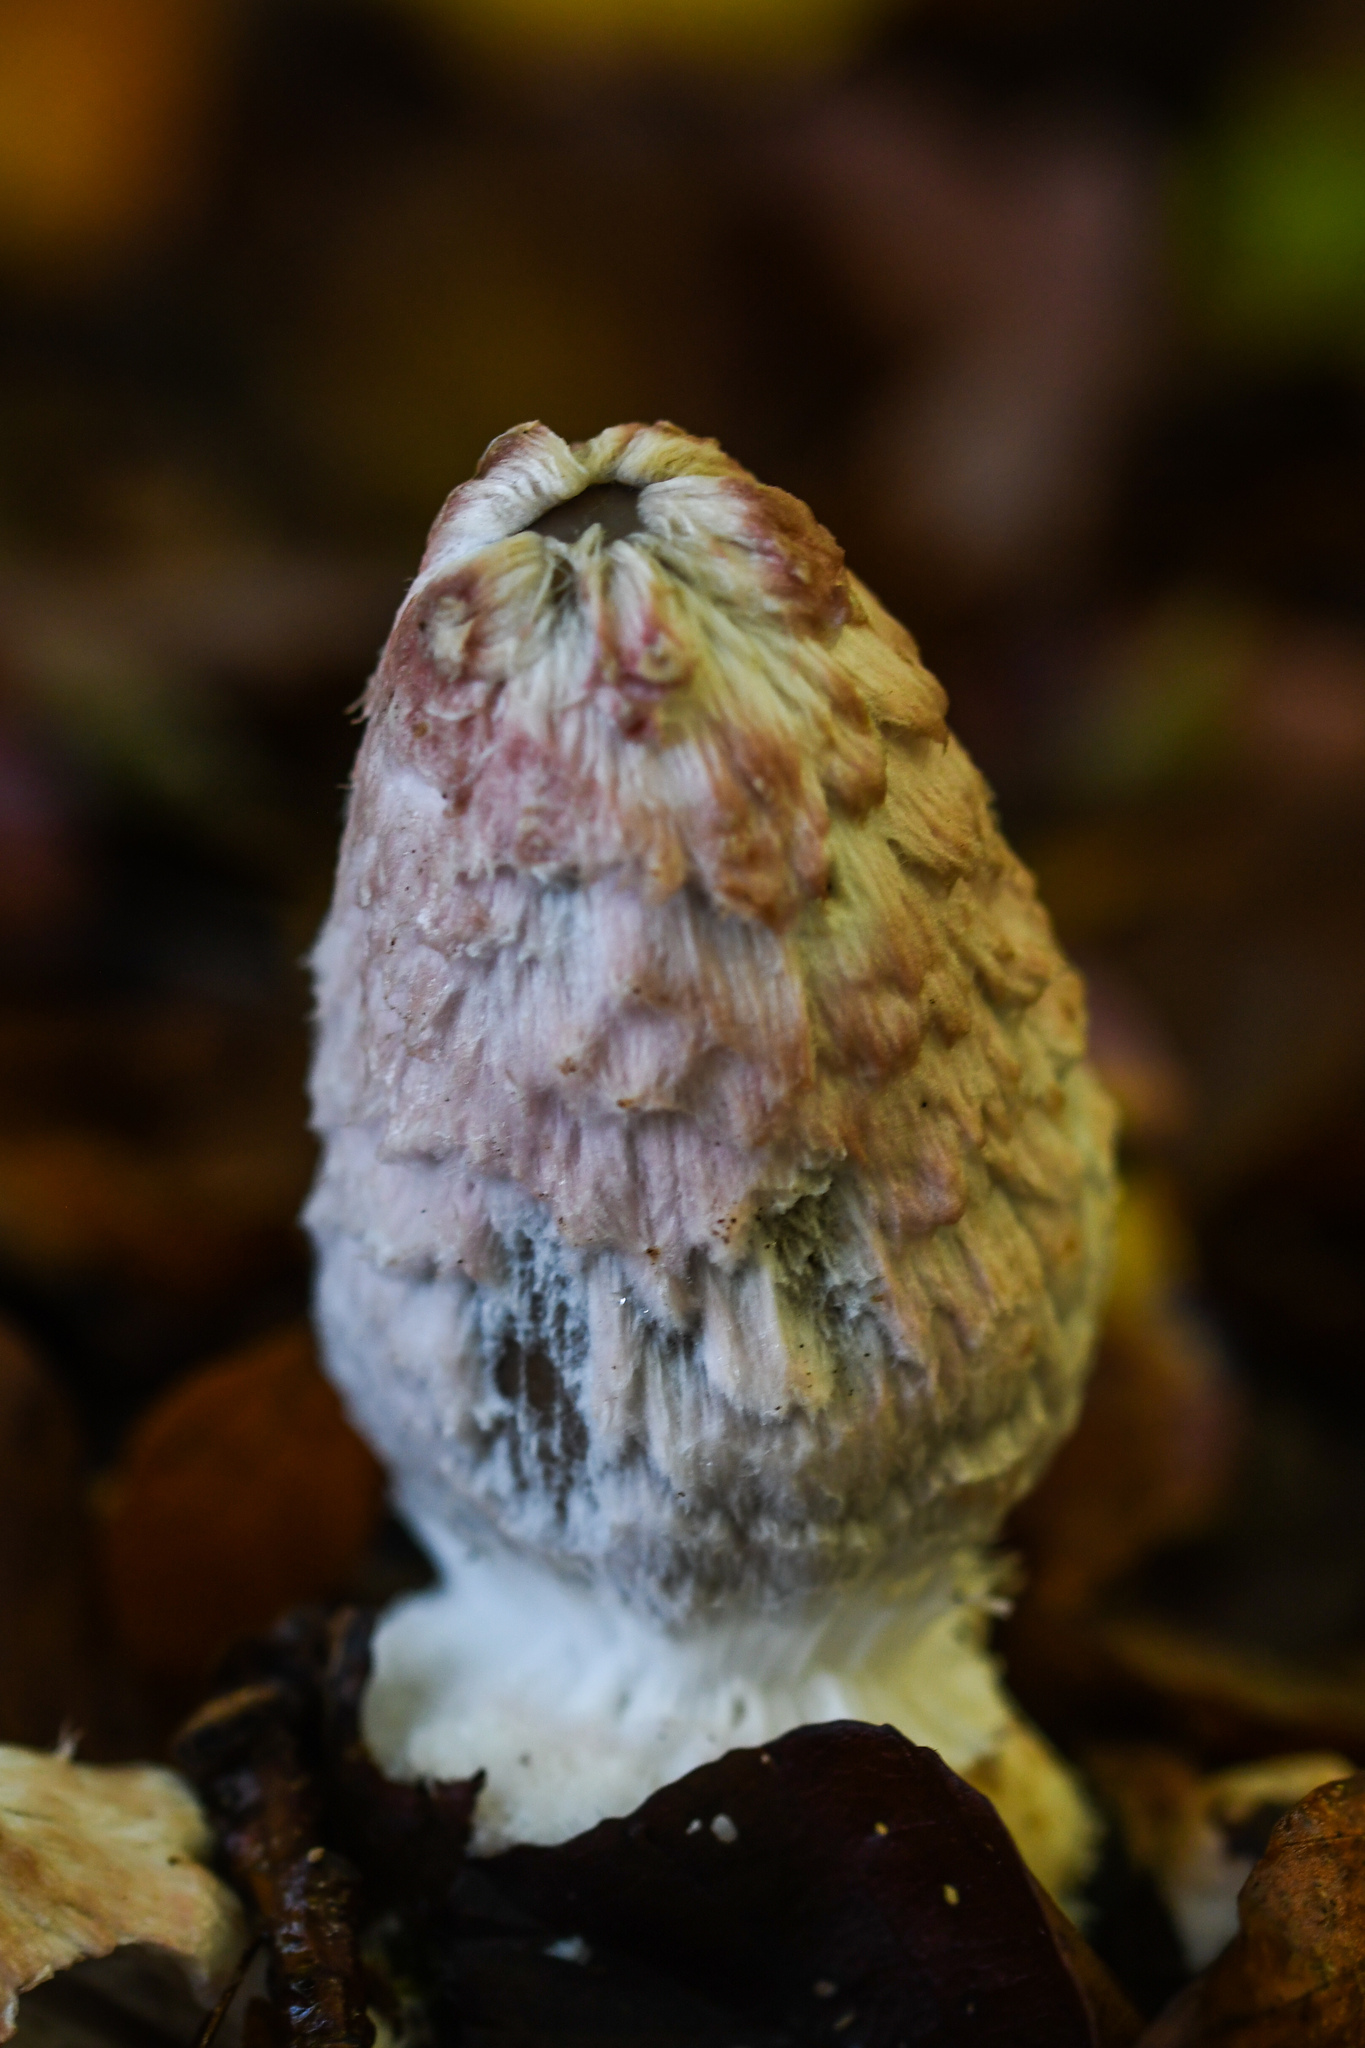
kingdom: Fungi
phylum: Basidiomycota
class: Agaricomycetes
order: Agaricales
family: Psathyrellaceae
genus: Coprinopsis
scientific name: Coprinopsis picacea
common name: Magpie inkcap
